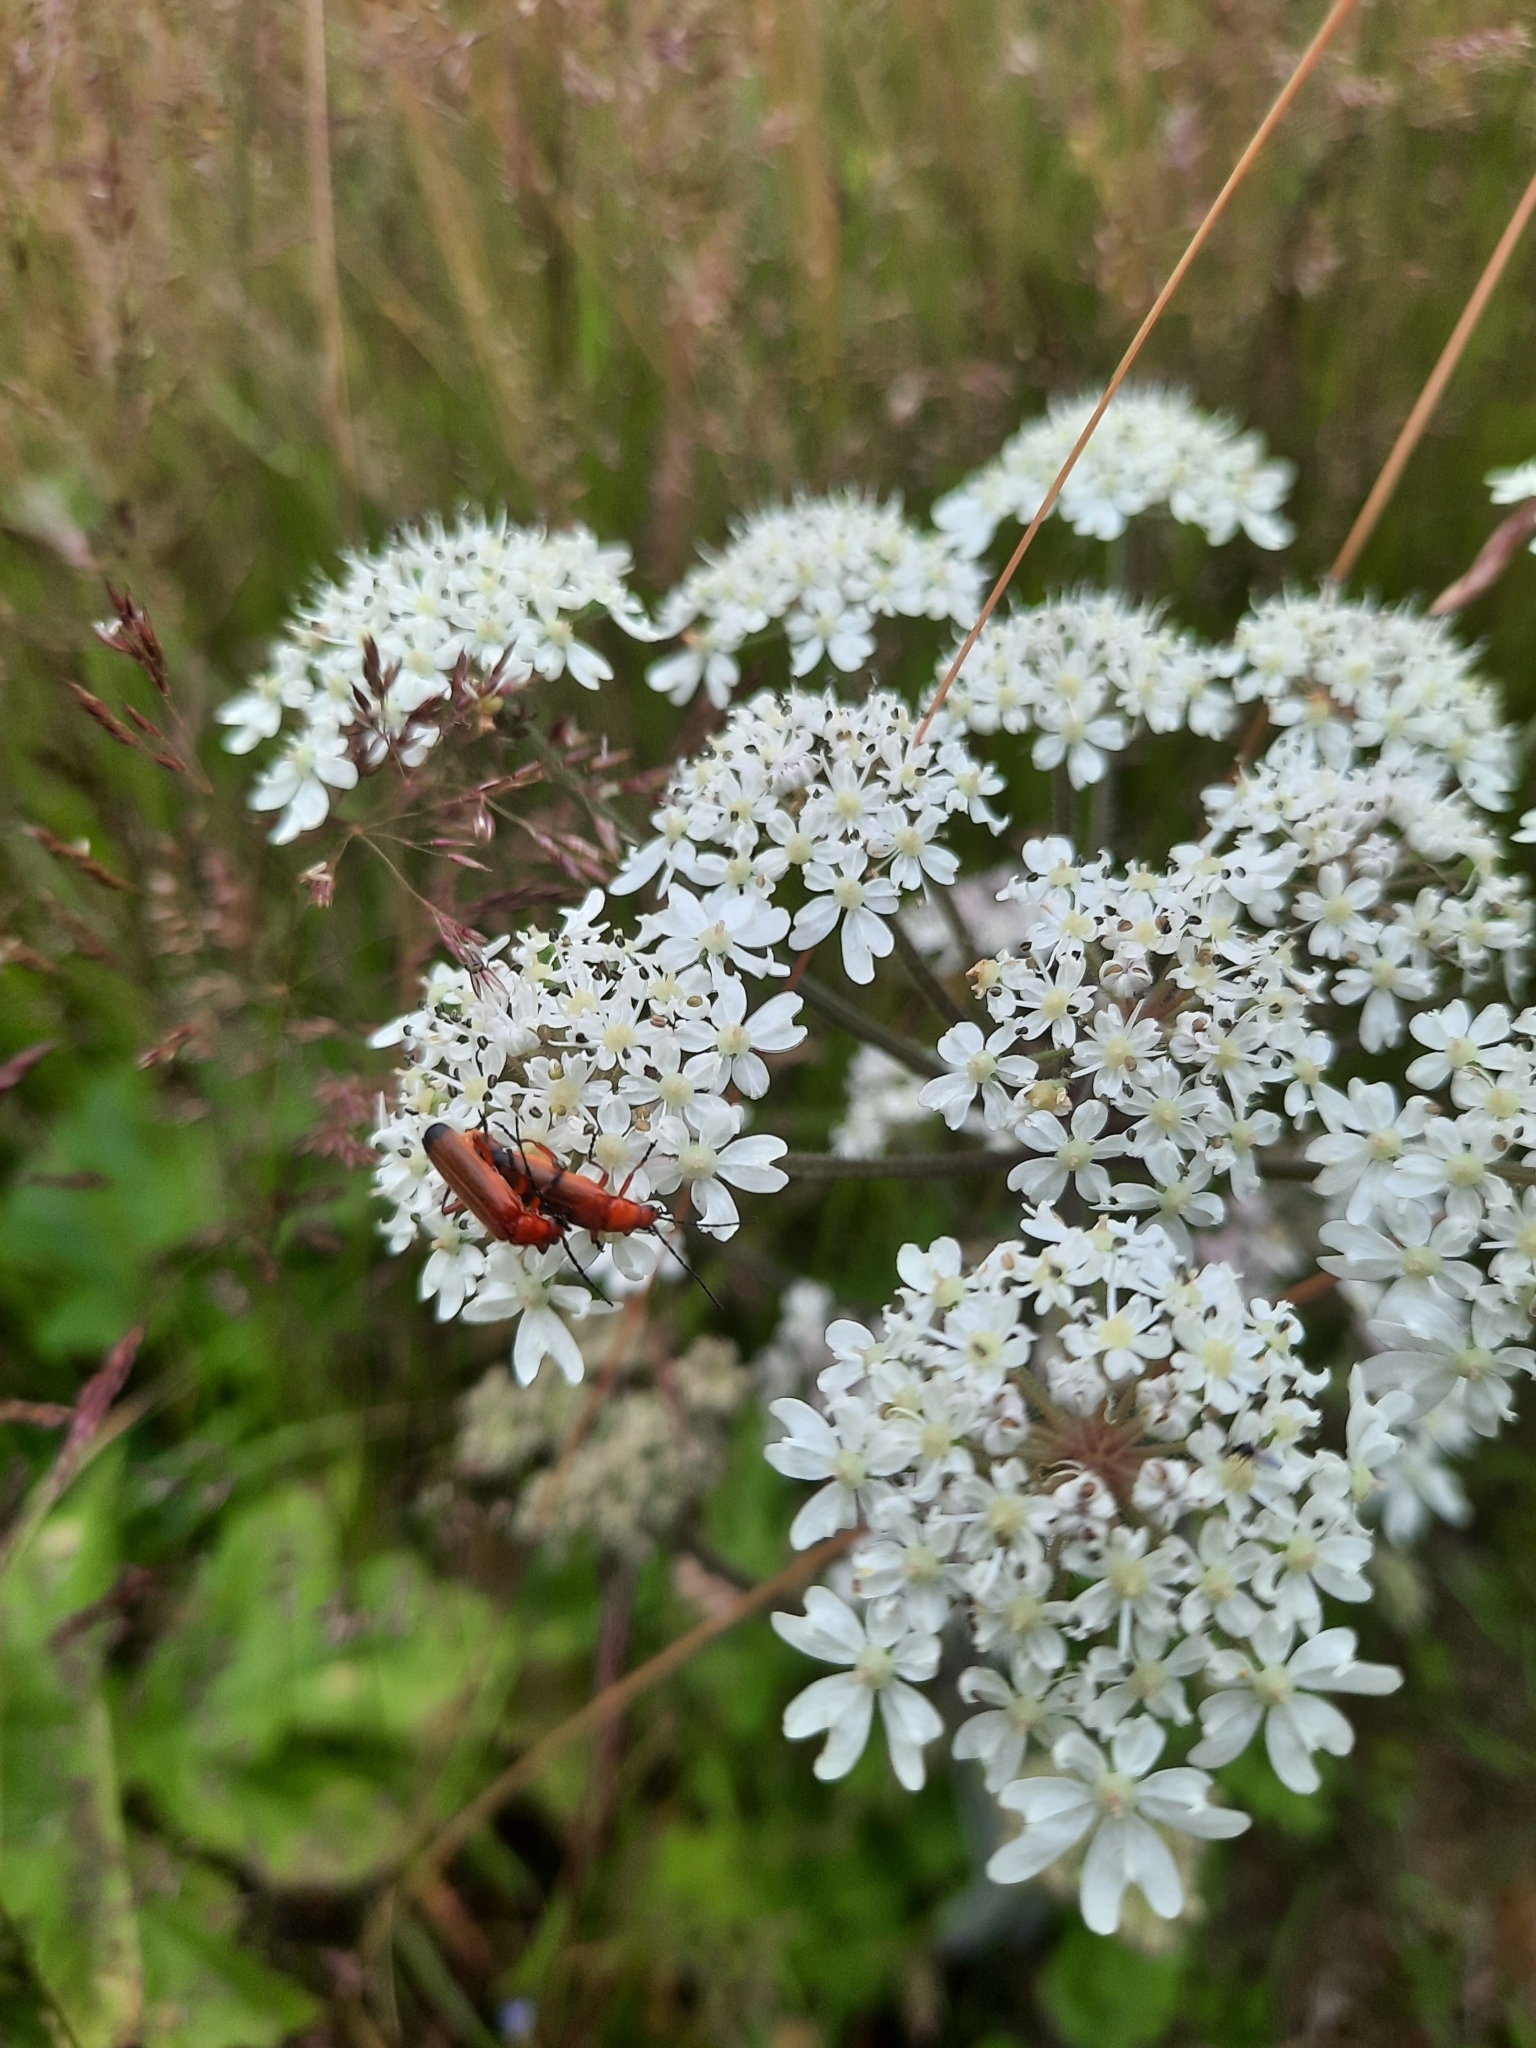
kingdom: Animalia
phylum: Arthropoda
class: Insecta
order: Coleoptera
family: Cantharidae
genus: Rhagonycha
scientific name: Rhagonycha fulva
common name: Common red soldier beetle
